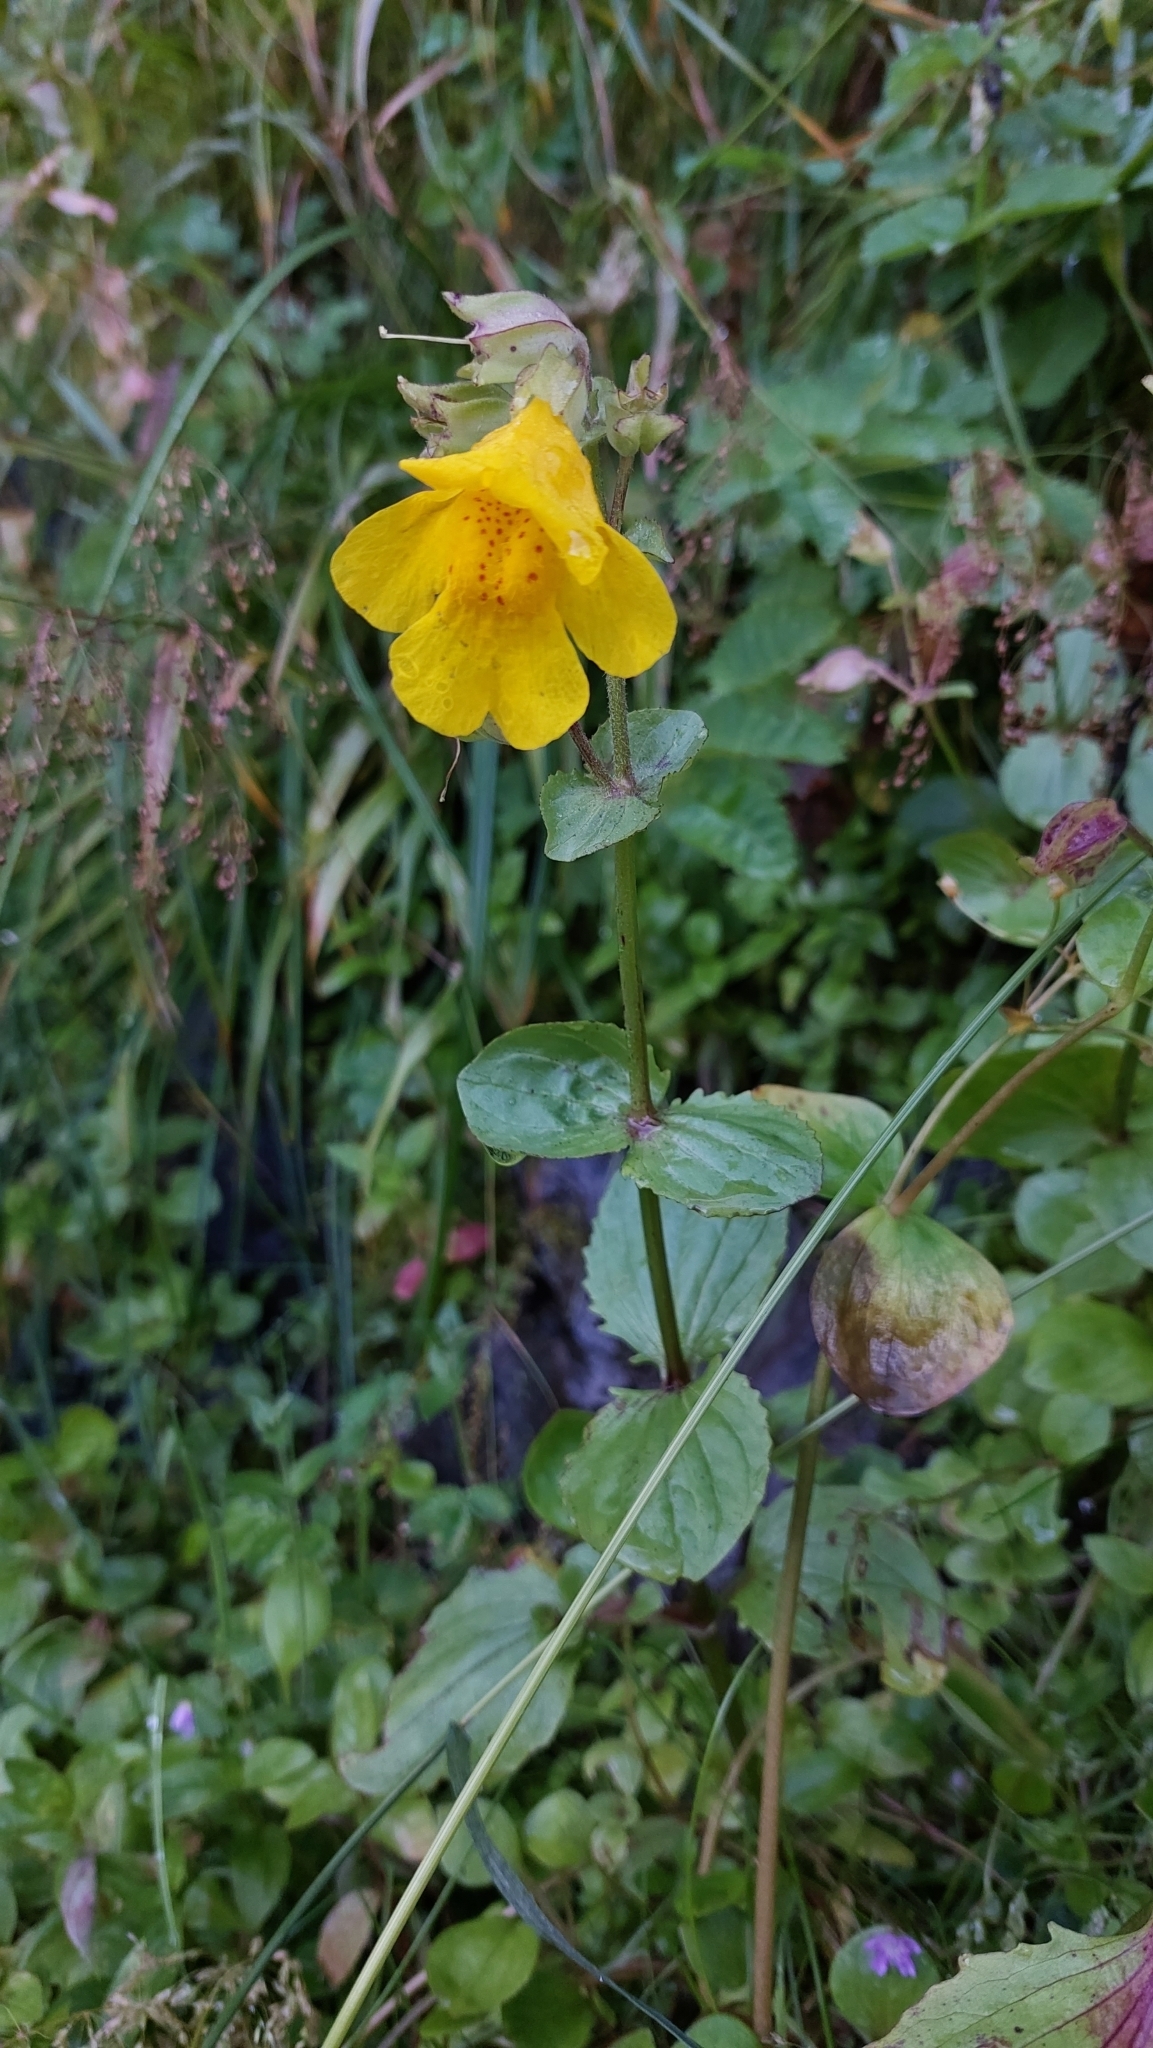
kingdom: Plantae
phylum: Tracheophyta
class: Magnoliopsida
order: Lamiales
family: Phrymaceae
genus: Erythranthe
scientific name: Erythranthe guttata
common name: Monkeyflower
